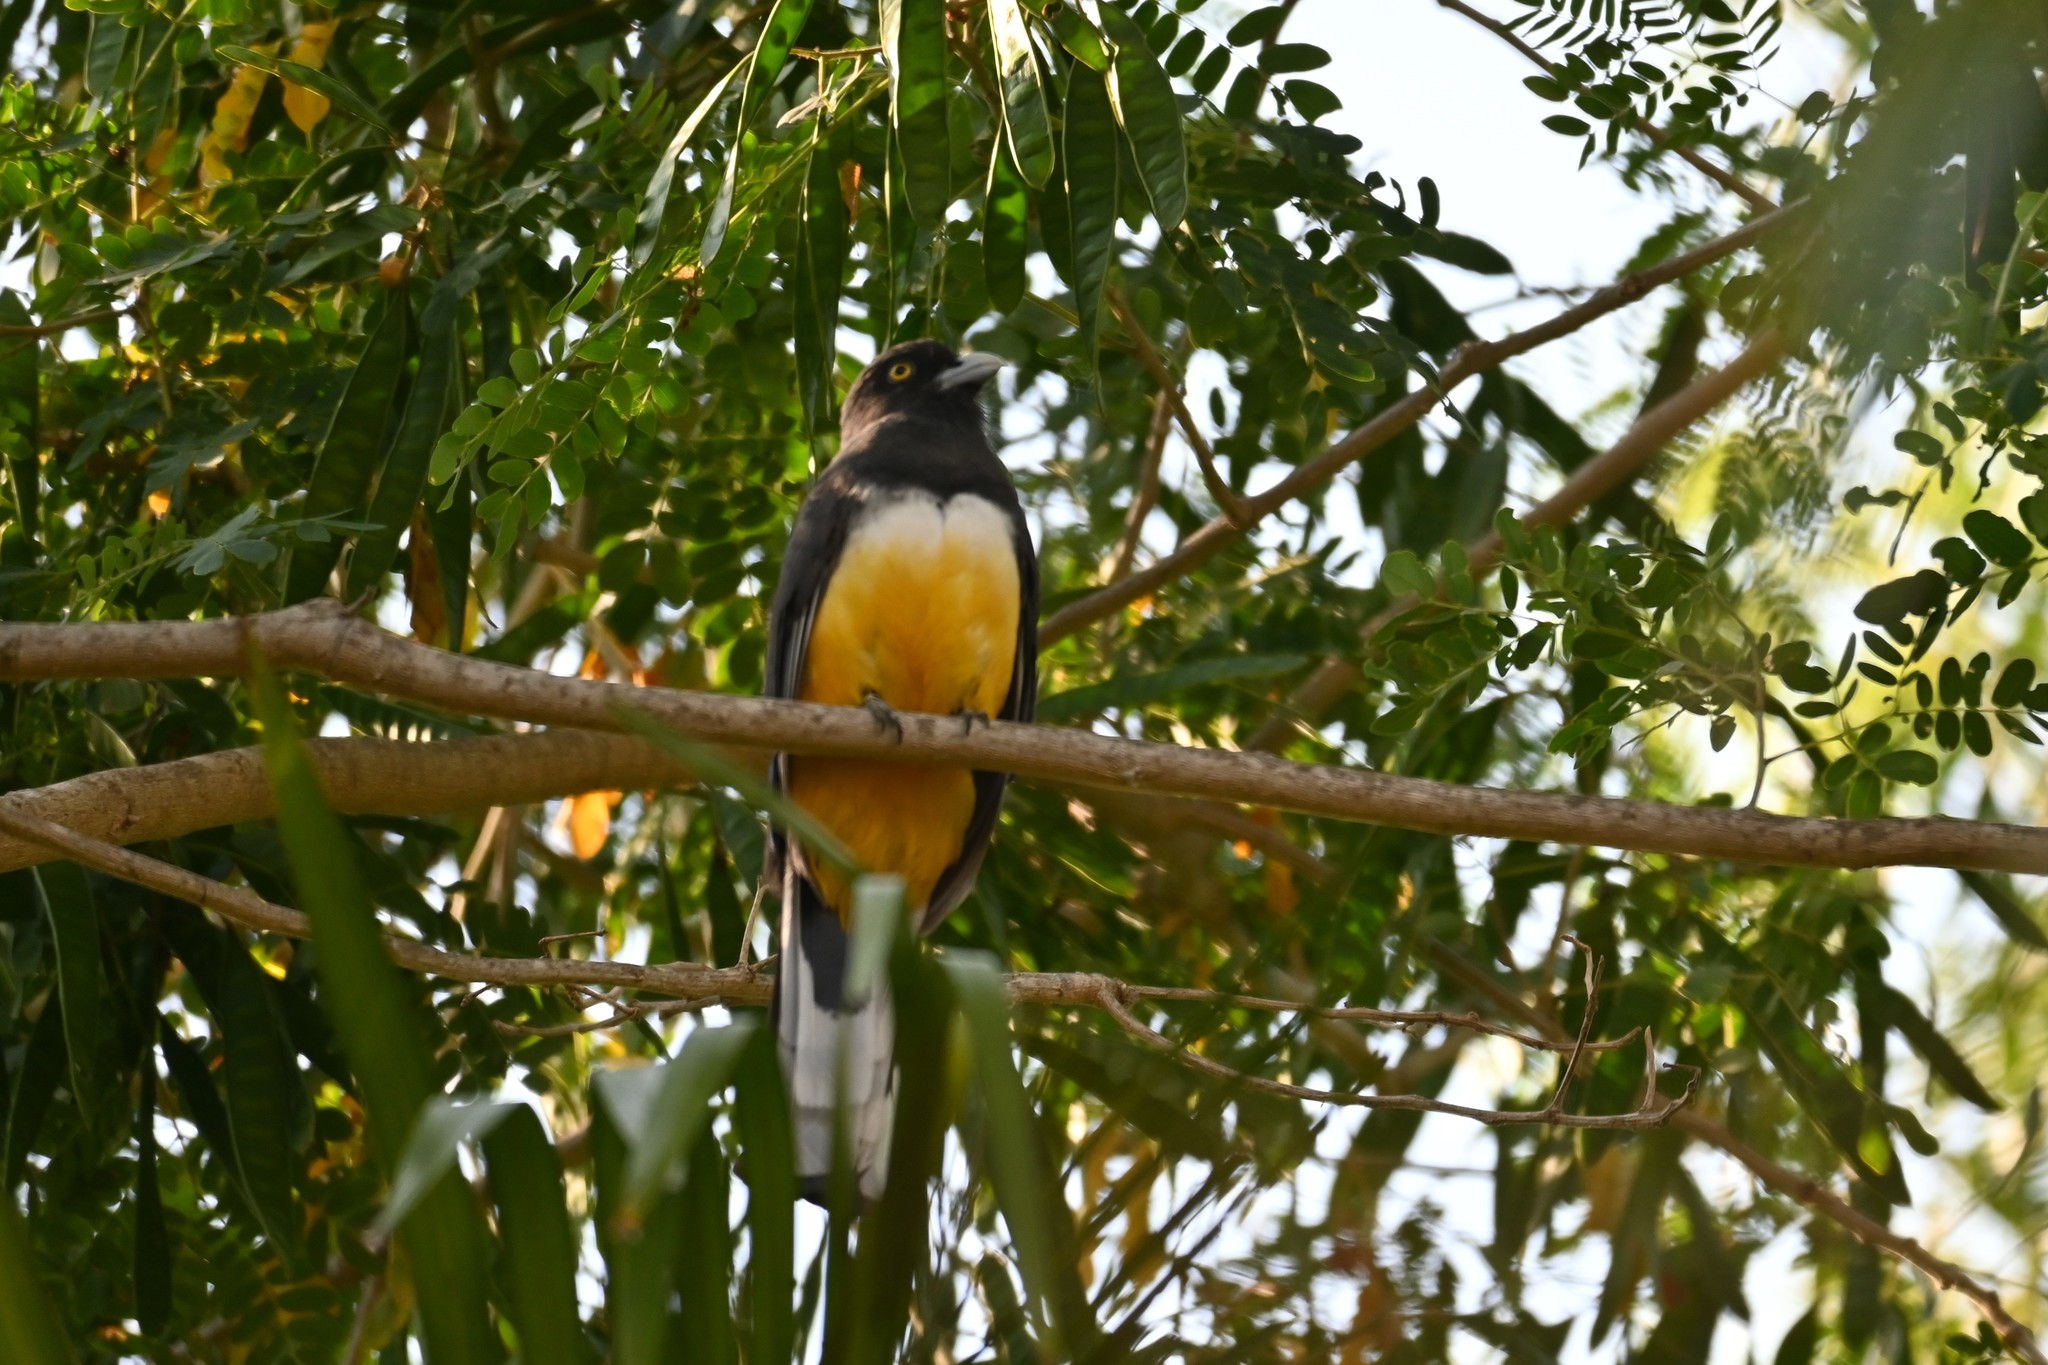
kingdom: Animalia
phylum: Chordata
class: Aves
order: Trogoniformes
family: Trogonidae
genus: Trogon
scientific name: Trogon citreolus
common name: Citreoline trogon
